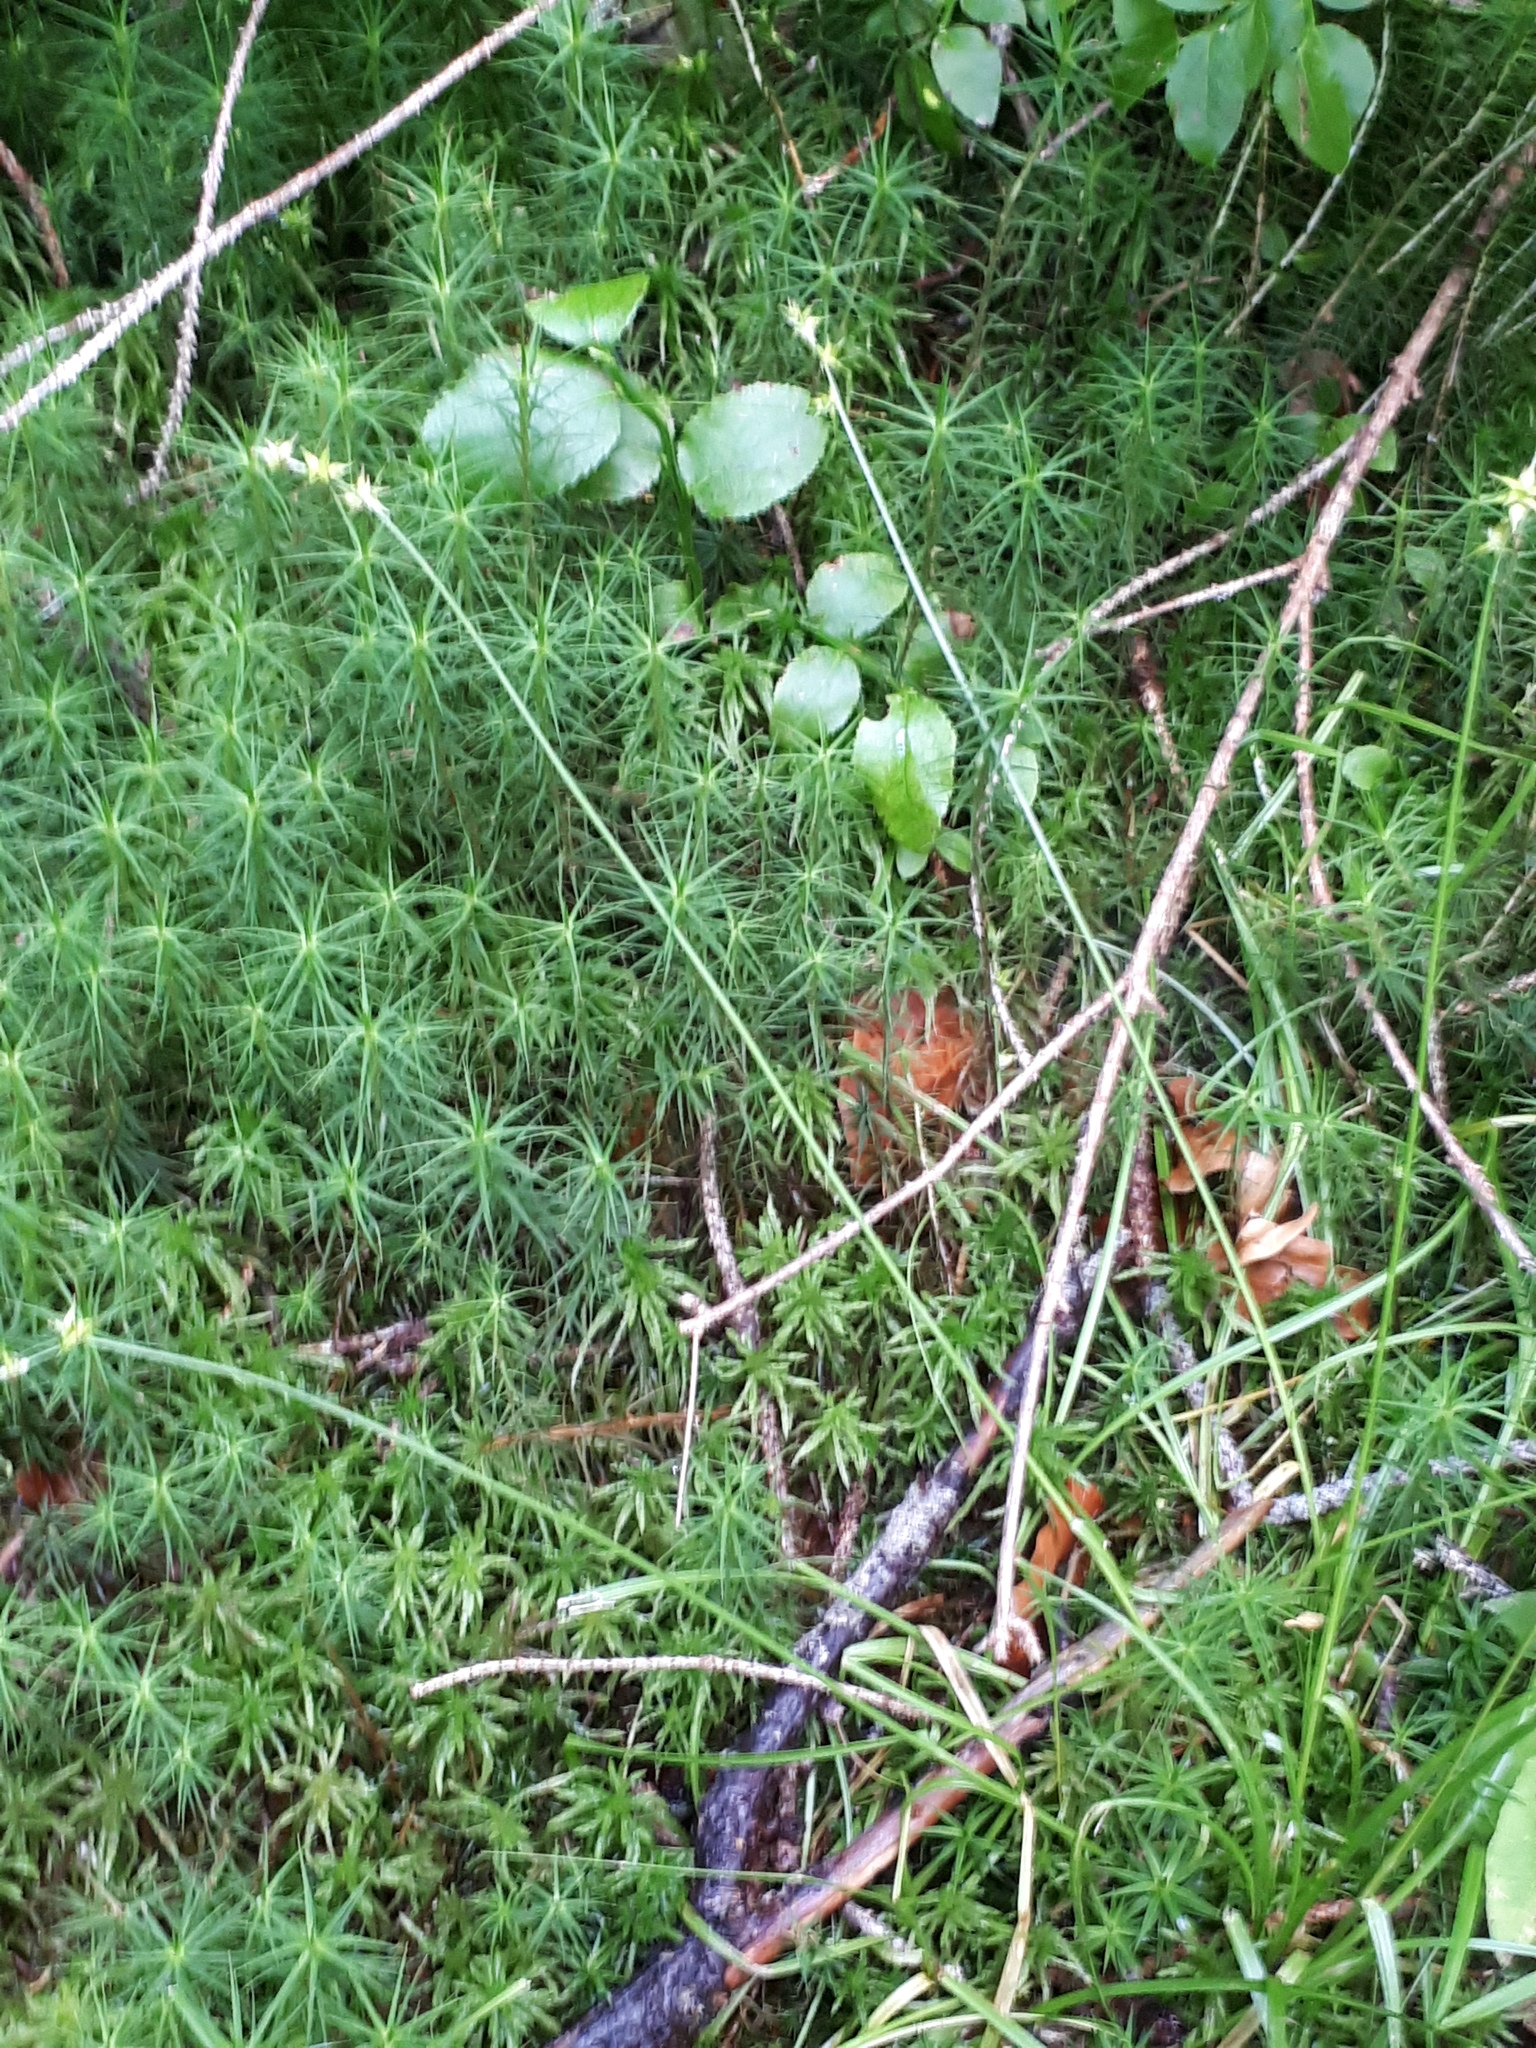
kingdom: Plantae
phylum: Tracheophyta
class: Liliopsida
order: Poales
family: Cyperaceae
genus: Carex
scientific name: Carex echinata
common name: Star sedge
